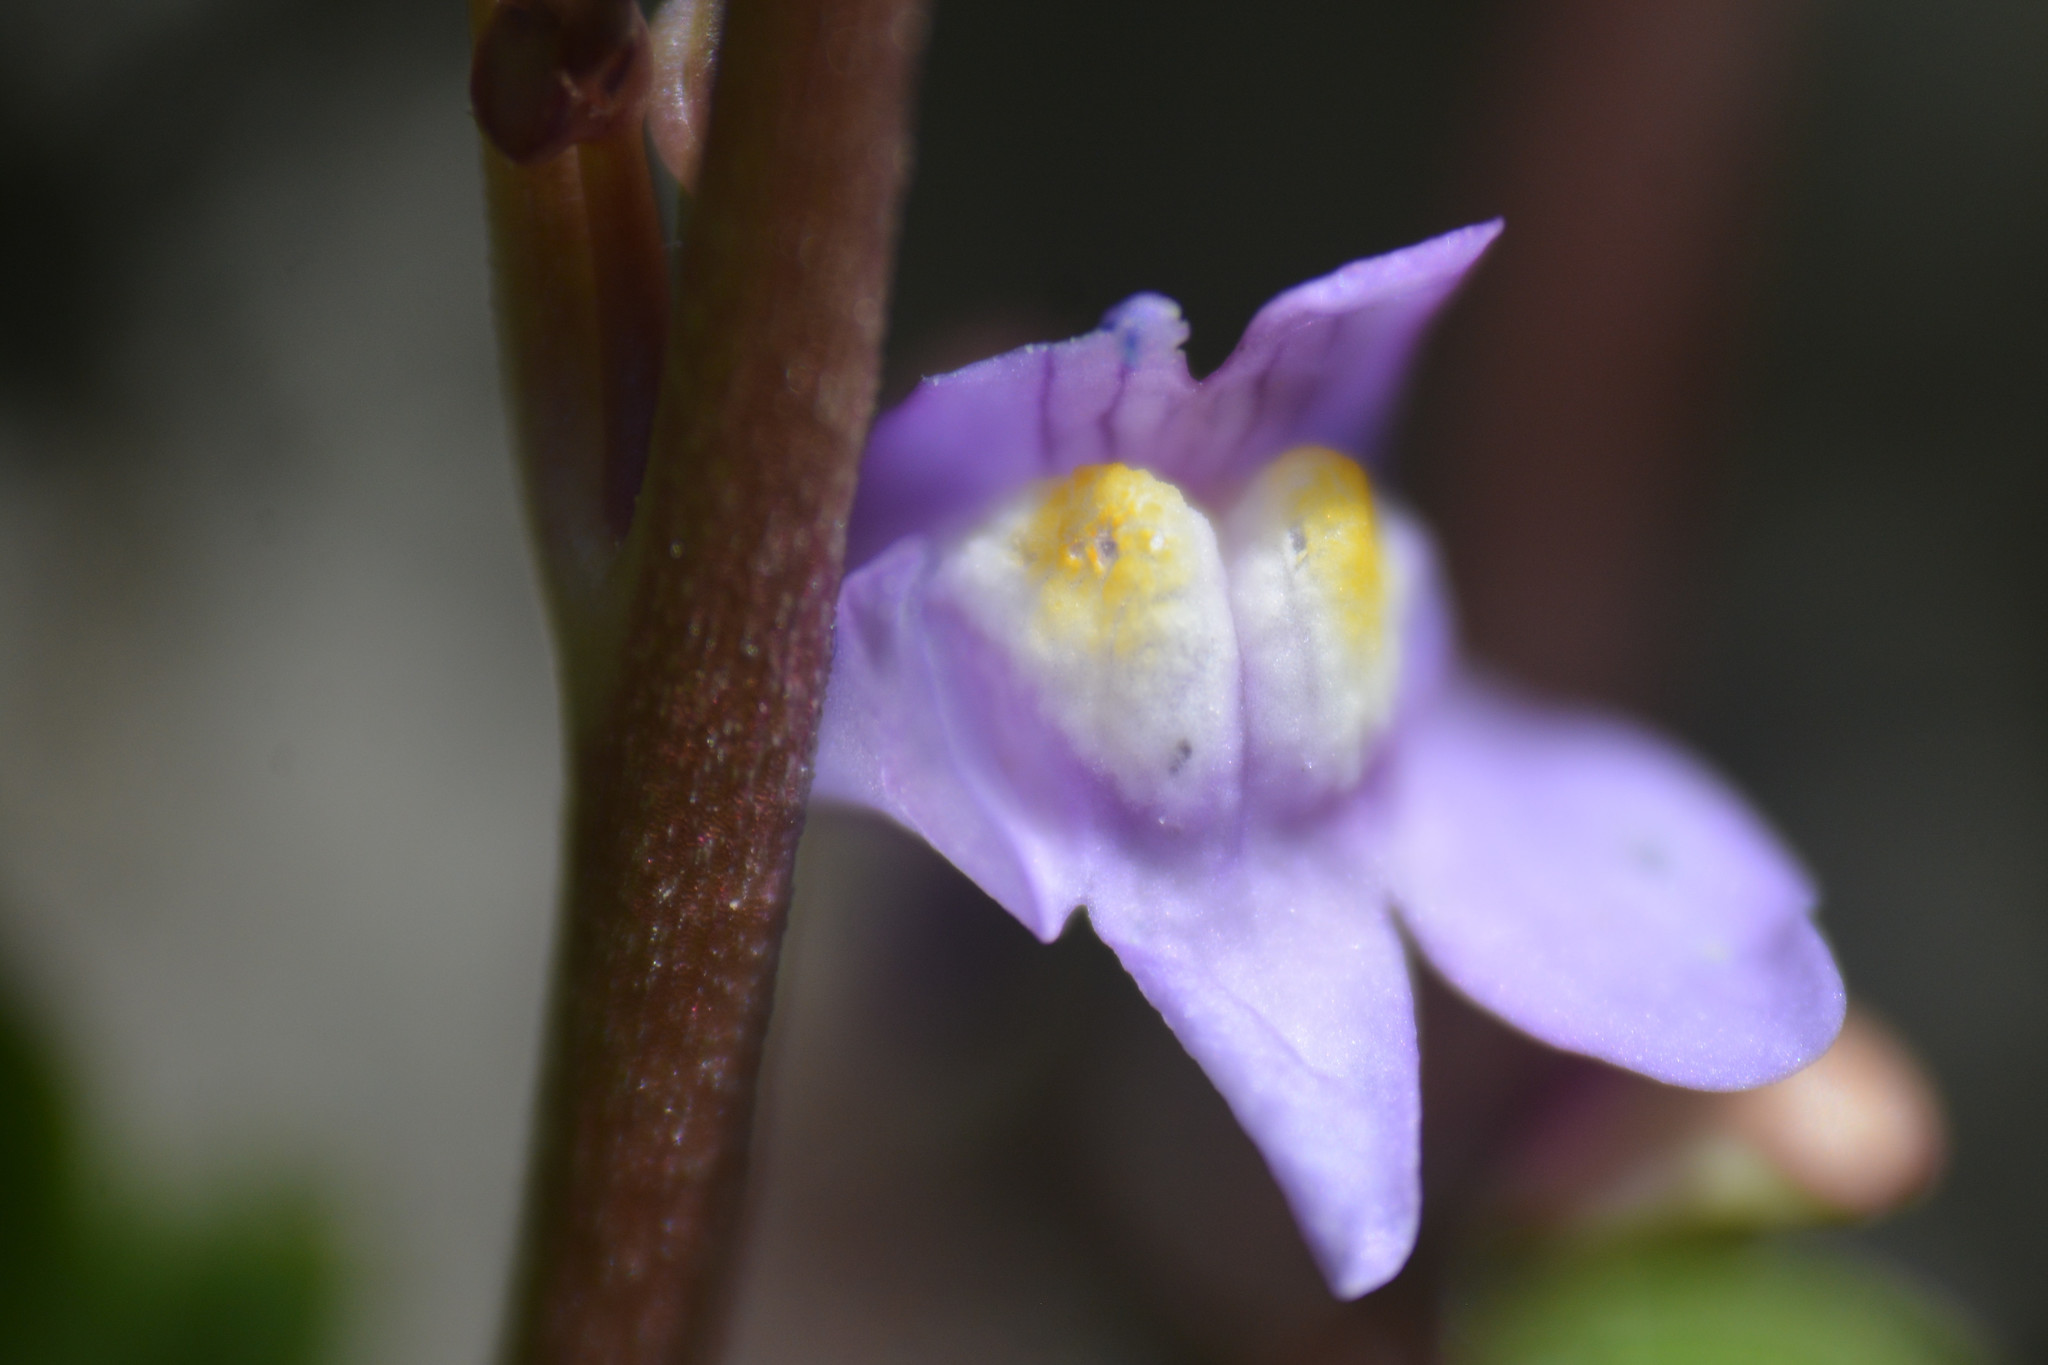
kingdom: Plantae
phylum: Tracheophyta
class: Magnoliopsida
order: Lamiales
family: Plantaginaceae
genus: Cymbalaria
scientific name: Cymbalaria muralis
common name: Ivy-leaved toadflax
